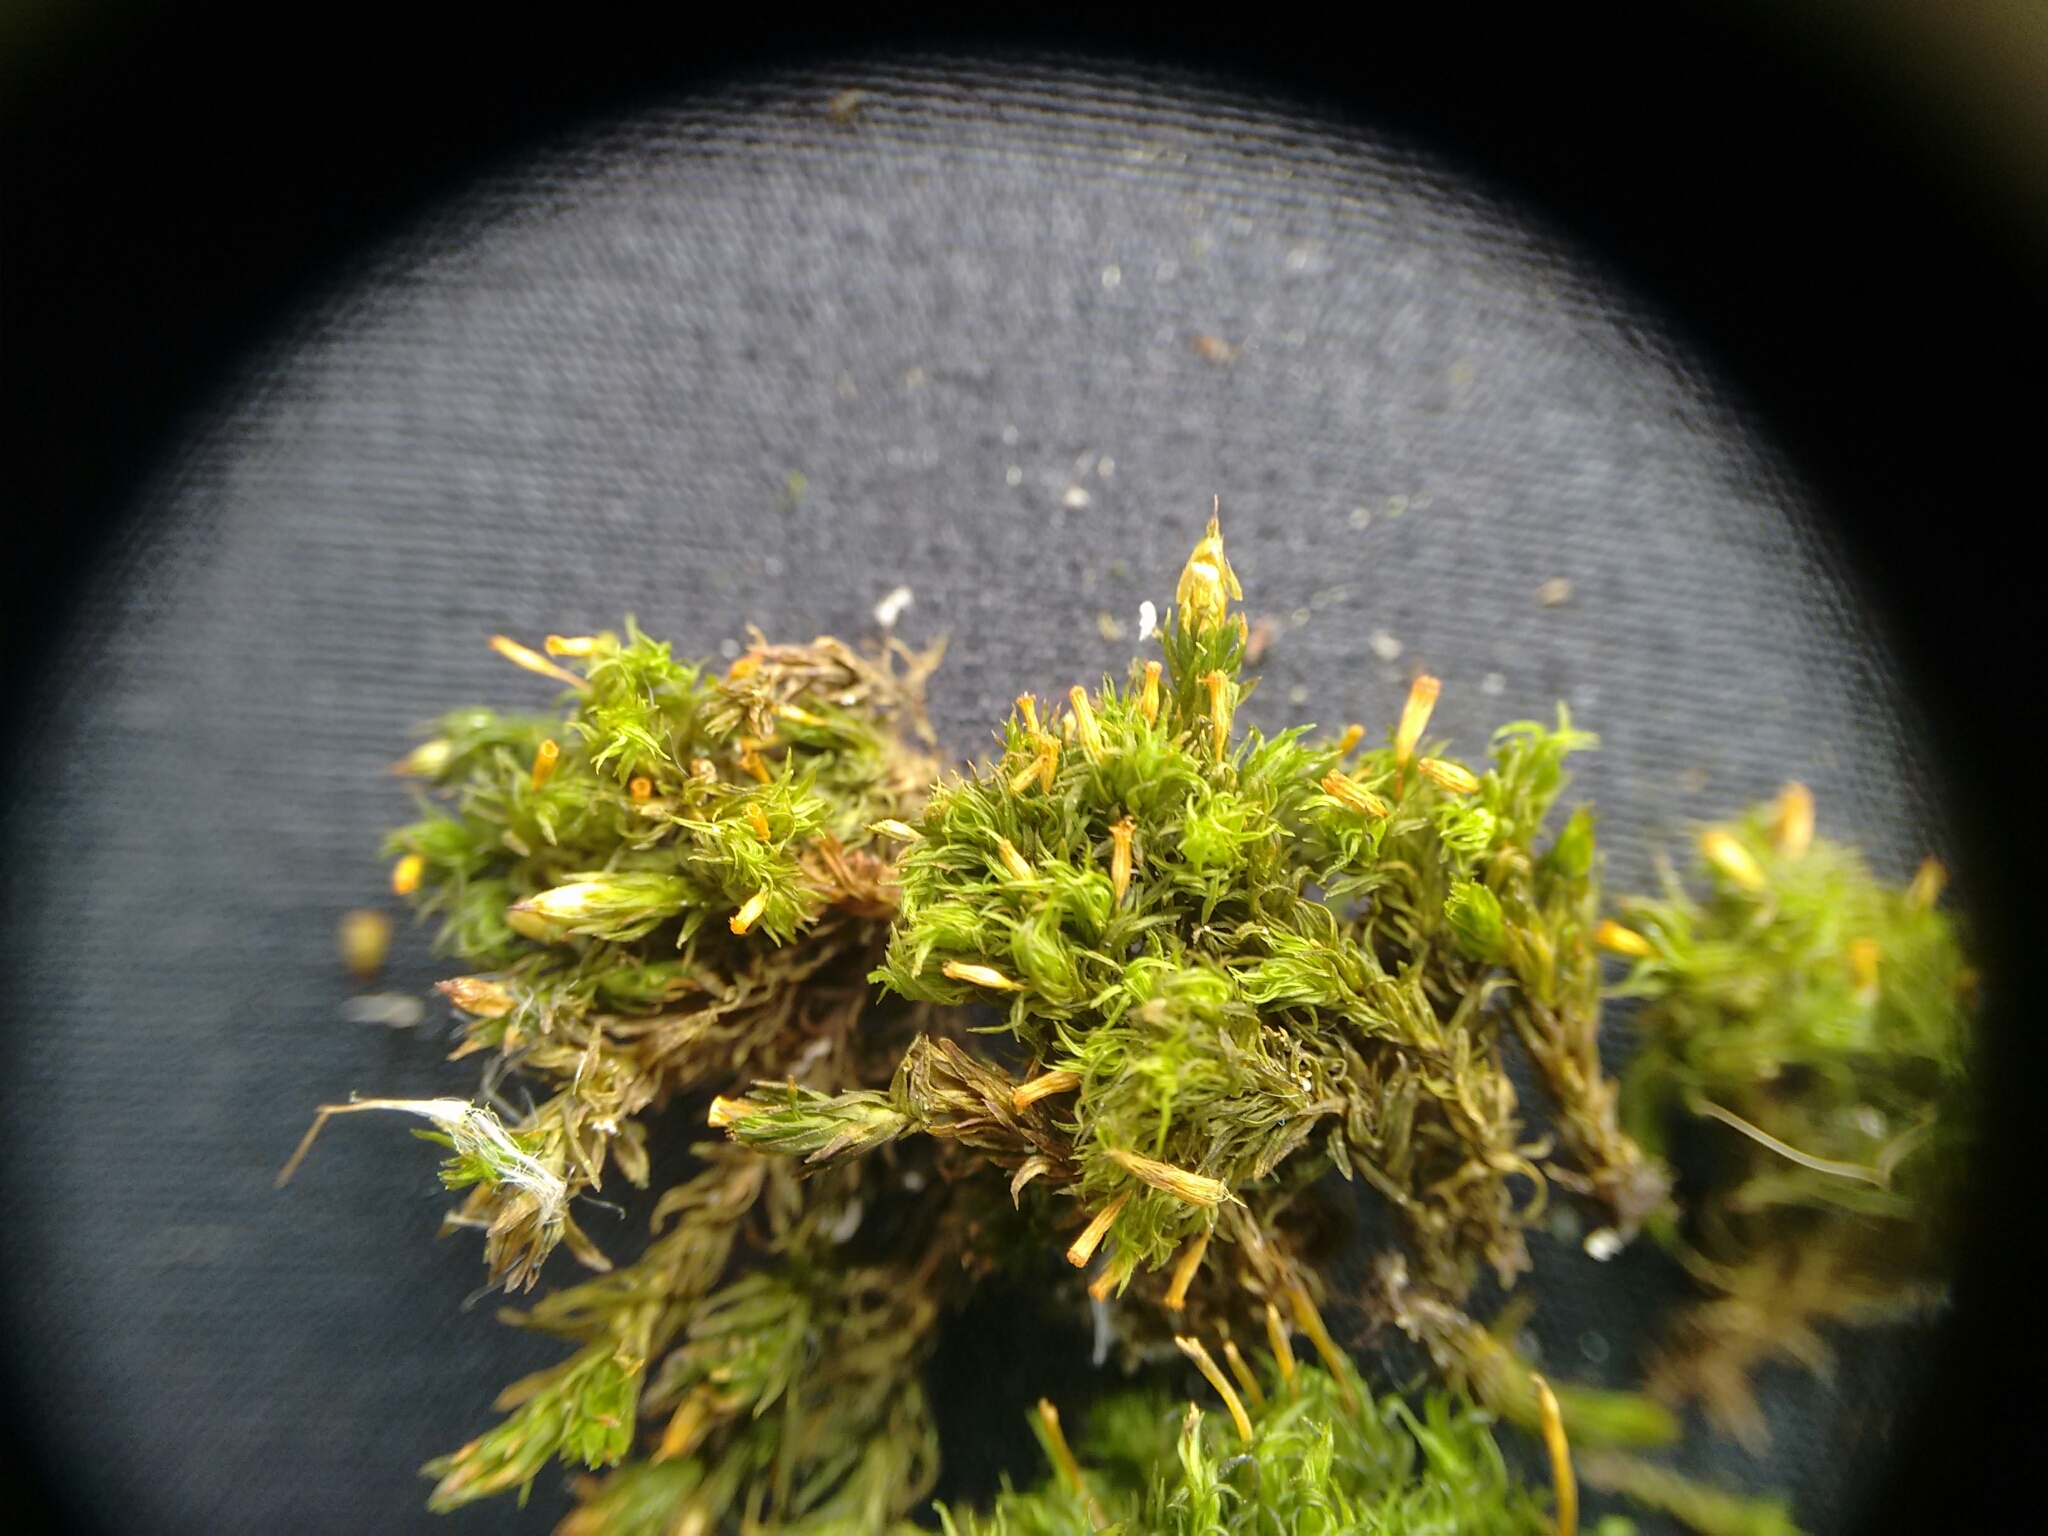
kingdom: Plantae
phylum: Bryophyta
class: Bryopsida
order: Orthotrichales
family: Orthotrichaceae
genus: Orthotrichum
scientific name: Orthotrichum pulchellum
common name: Elegant bristle-moss
